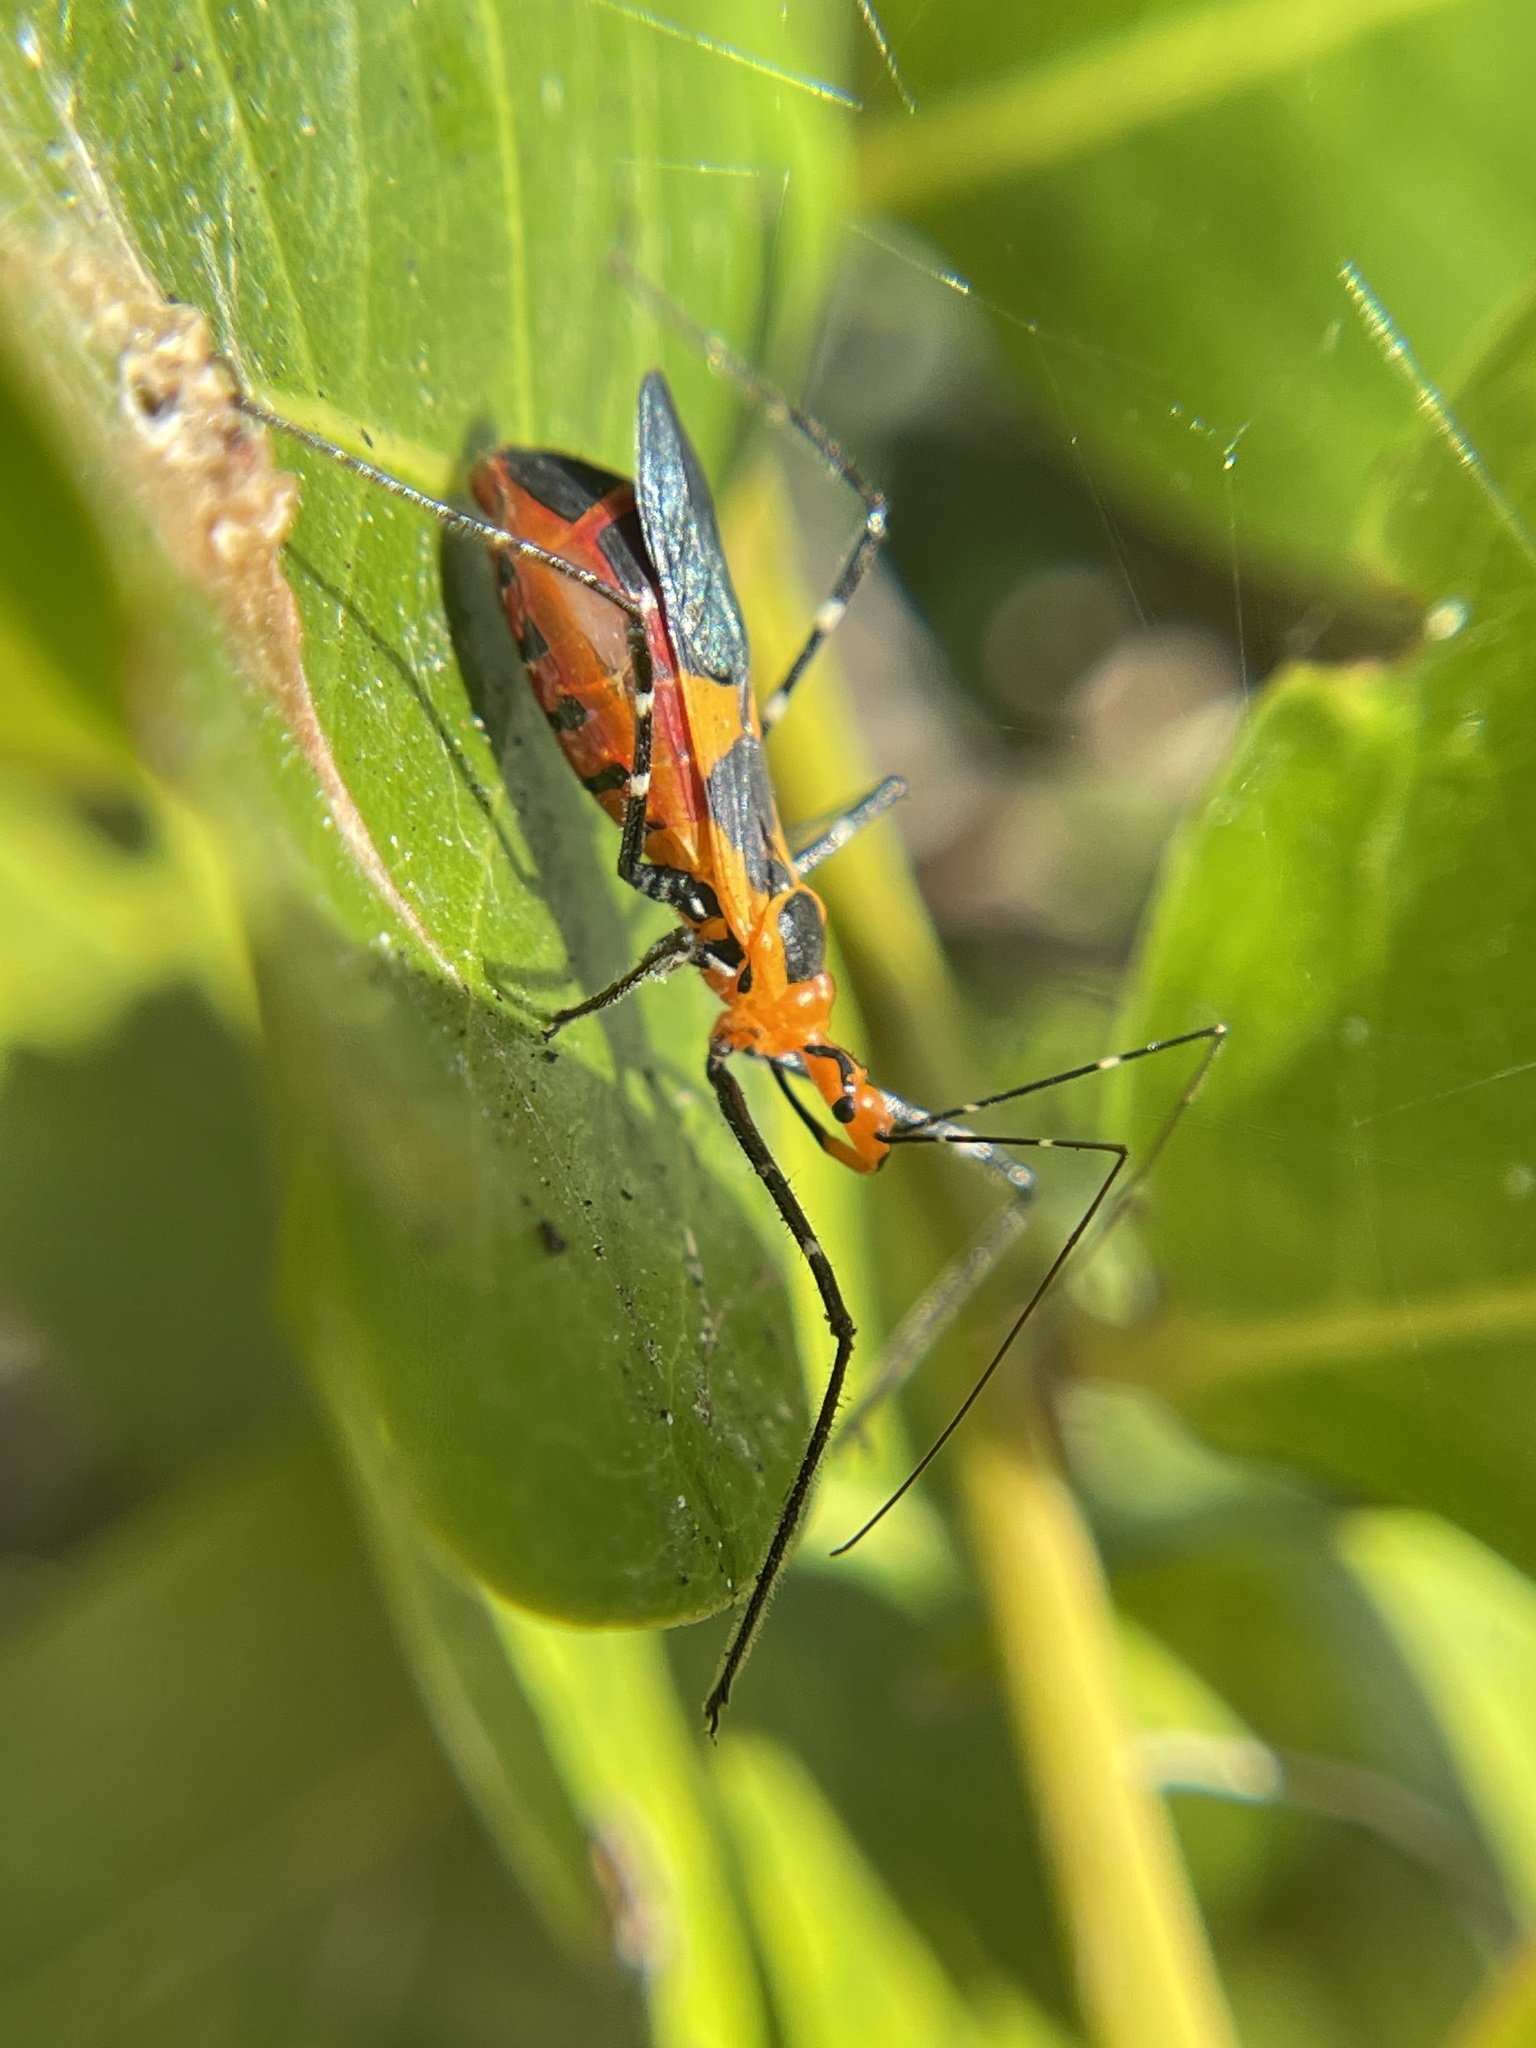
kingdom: Animalia
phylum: Arthropoda
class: Insecta
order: Hemiptera
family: Reduviidae
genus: Zelus
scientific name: Zelus longipes
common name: Milkweed assassin bug
